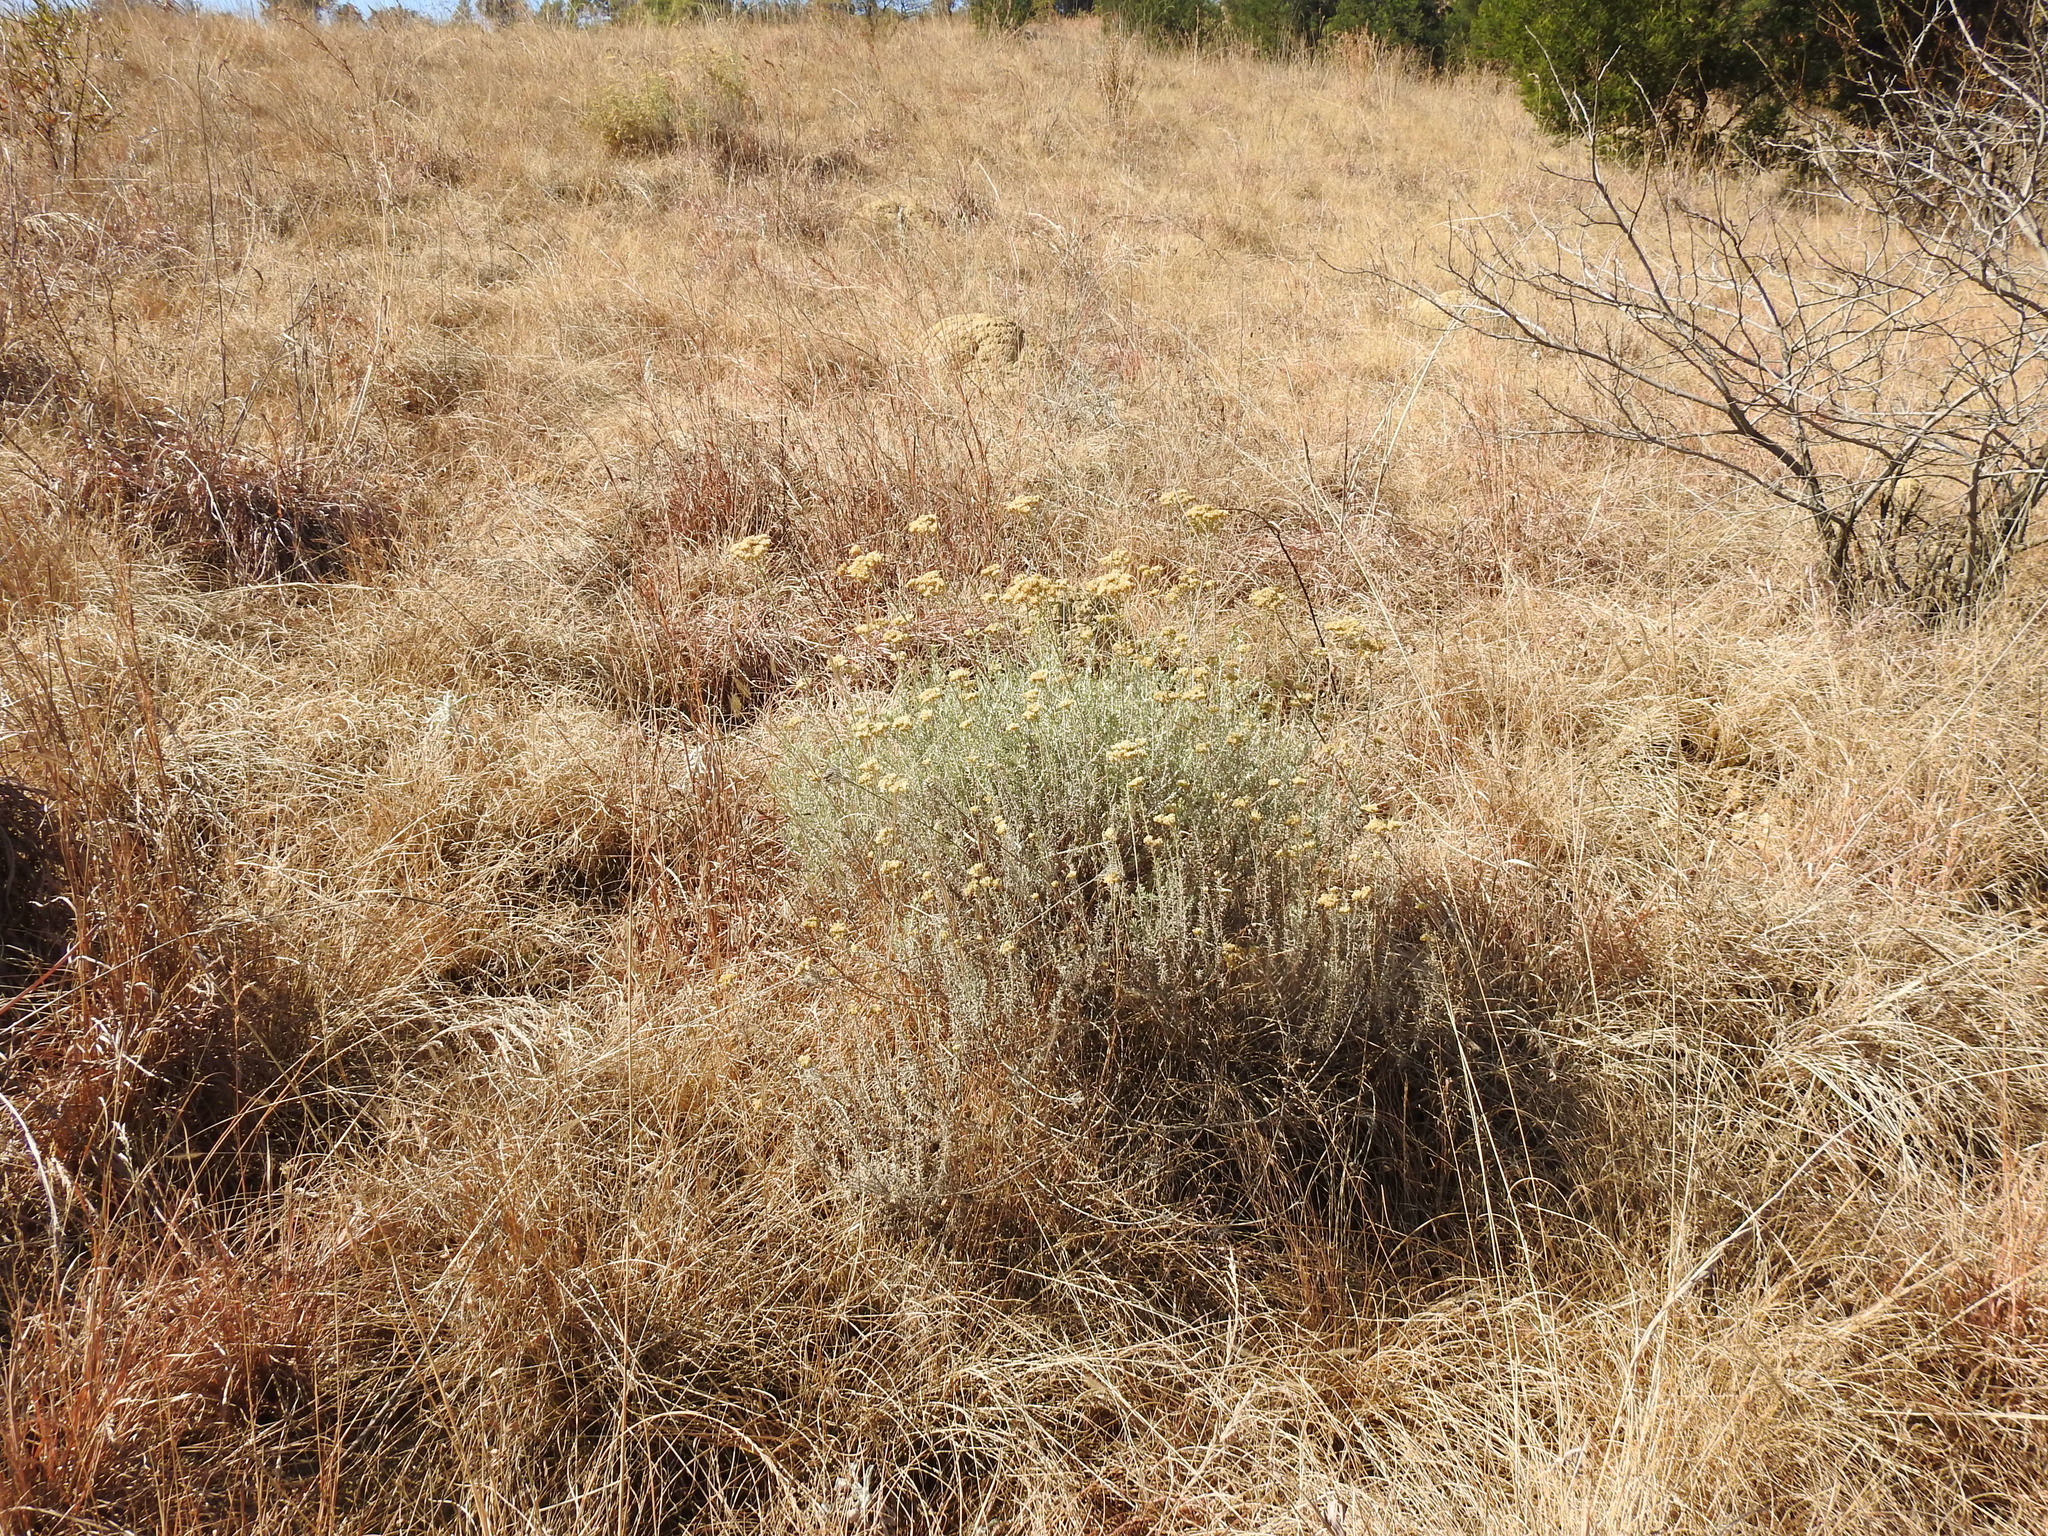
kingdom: Plantae
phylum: Tracheophyta
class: Magnoliopsida
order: Asterales
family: Asteraceae
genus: Helichrysum
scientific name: Helichrysum kraussii
